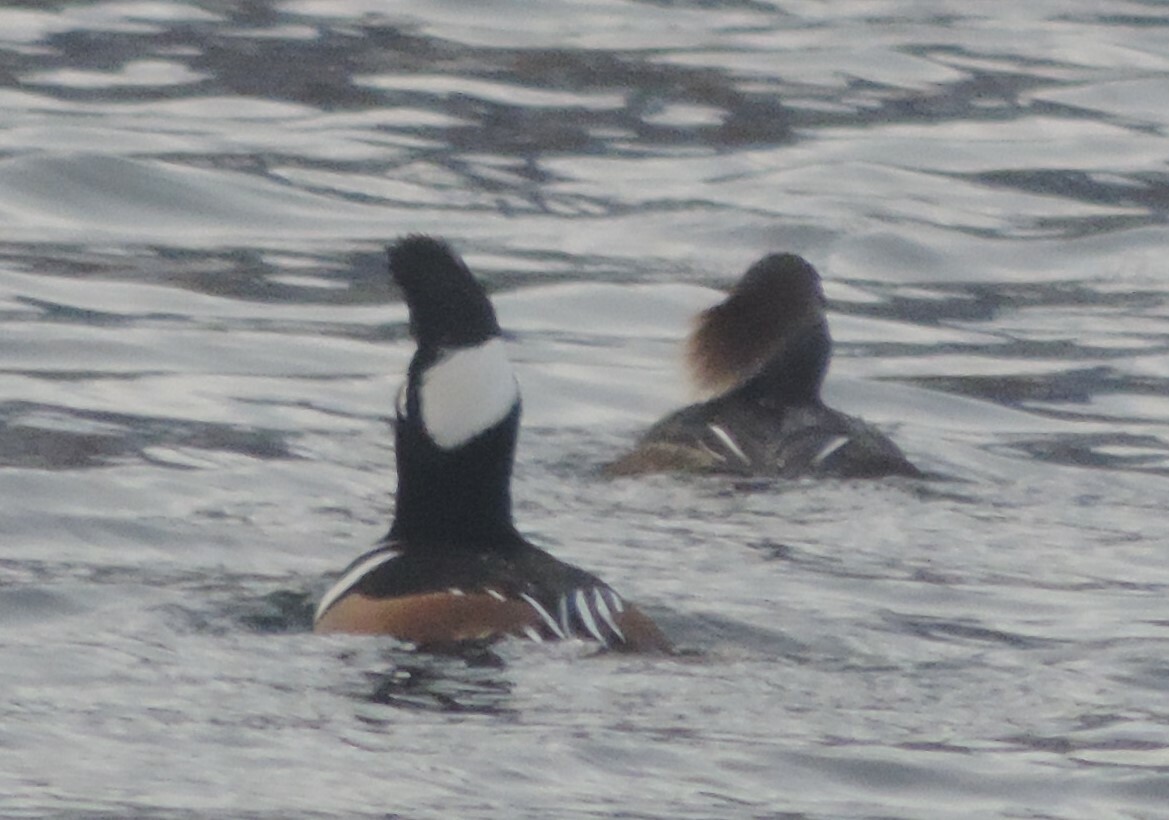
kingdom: Animalia
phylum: Chordata
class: Aves
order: Anseriformes
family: Anatidae
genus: Lophodytes
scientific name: Lophodytes cucullatus
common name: Hooded merganser
